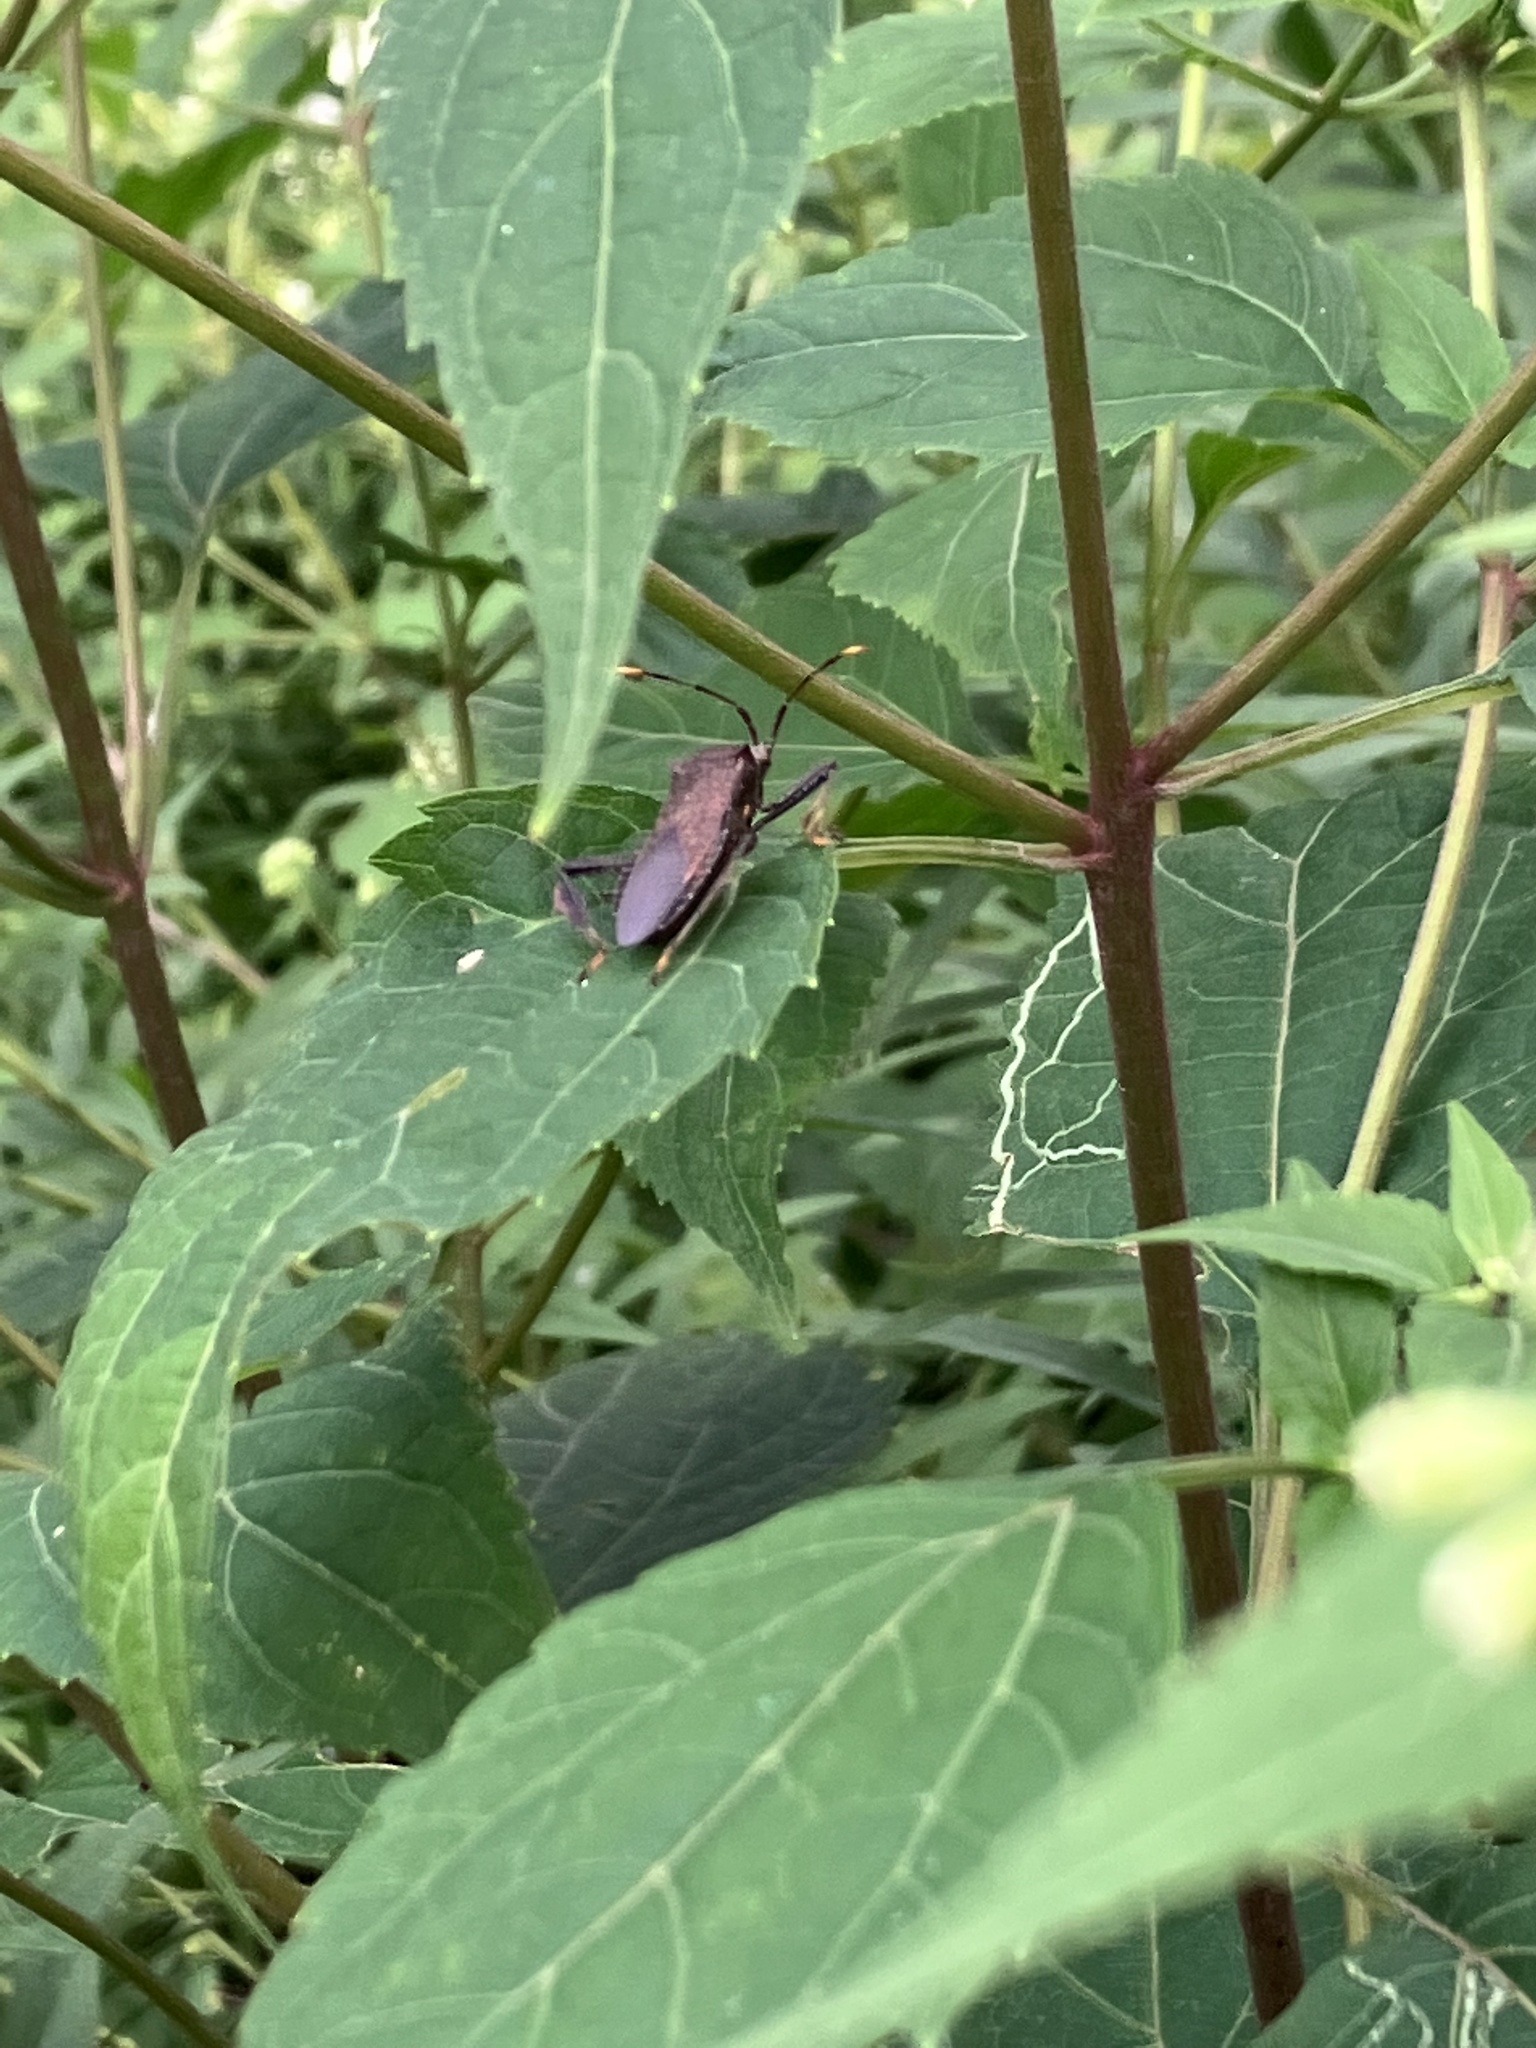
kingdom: Animalia
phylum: Arthropoda
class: Insecta
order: Hemiptera
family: Coreidae
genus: Acanthocephala
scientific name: Acanthocephala terminalis
